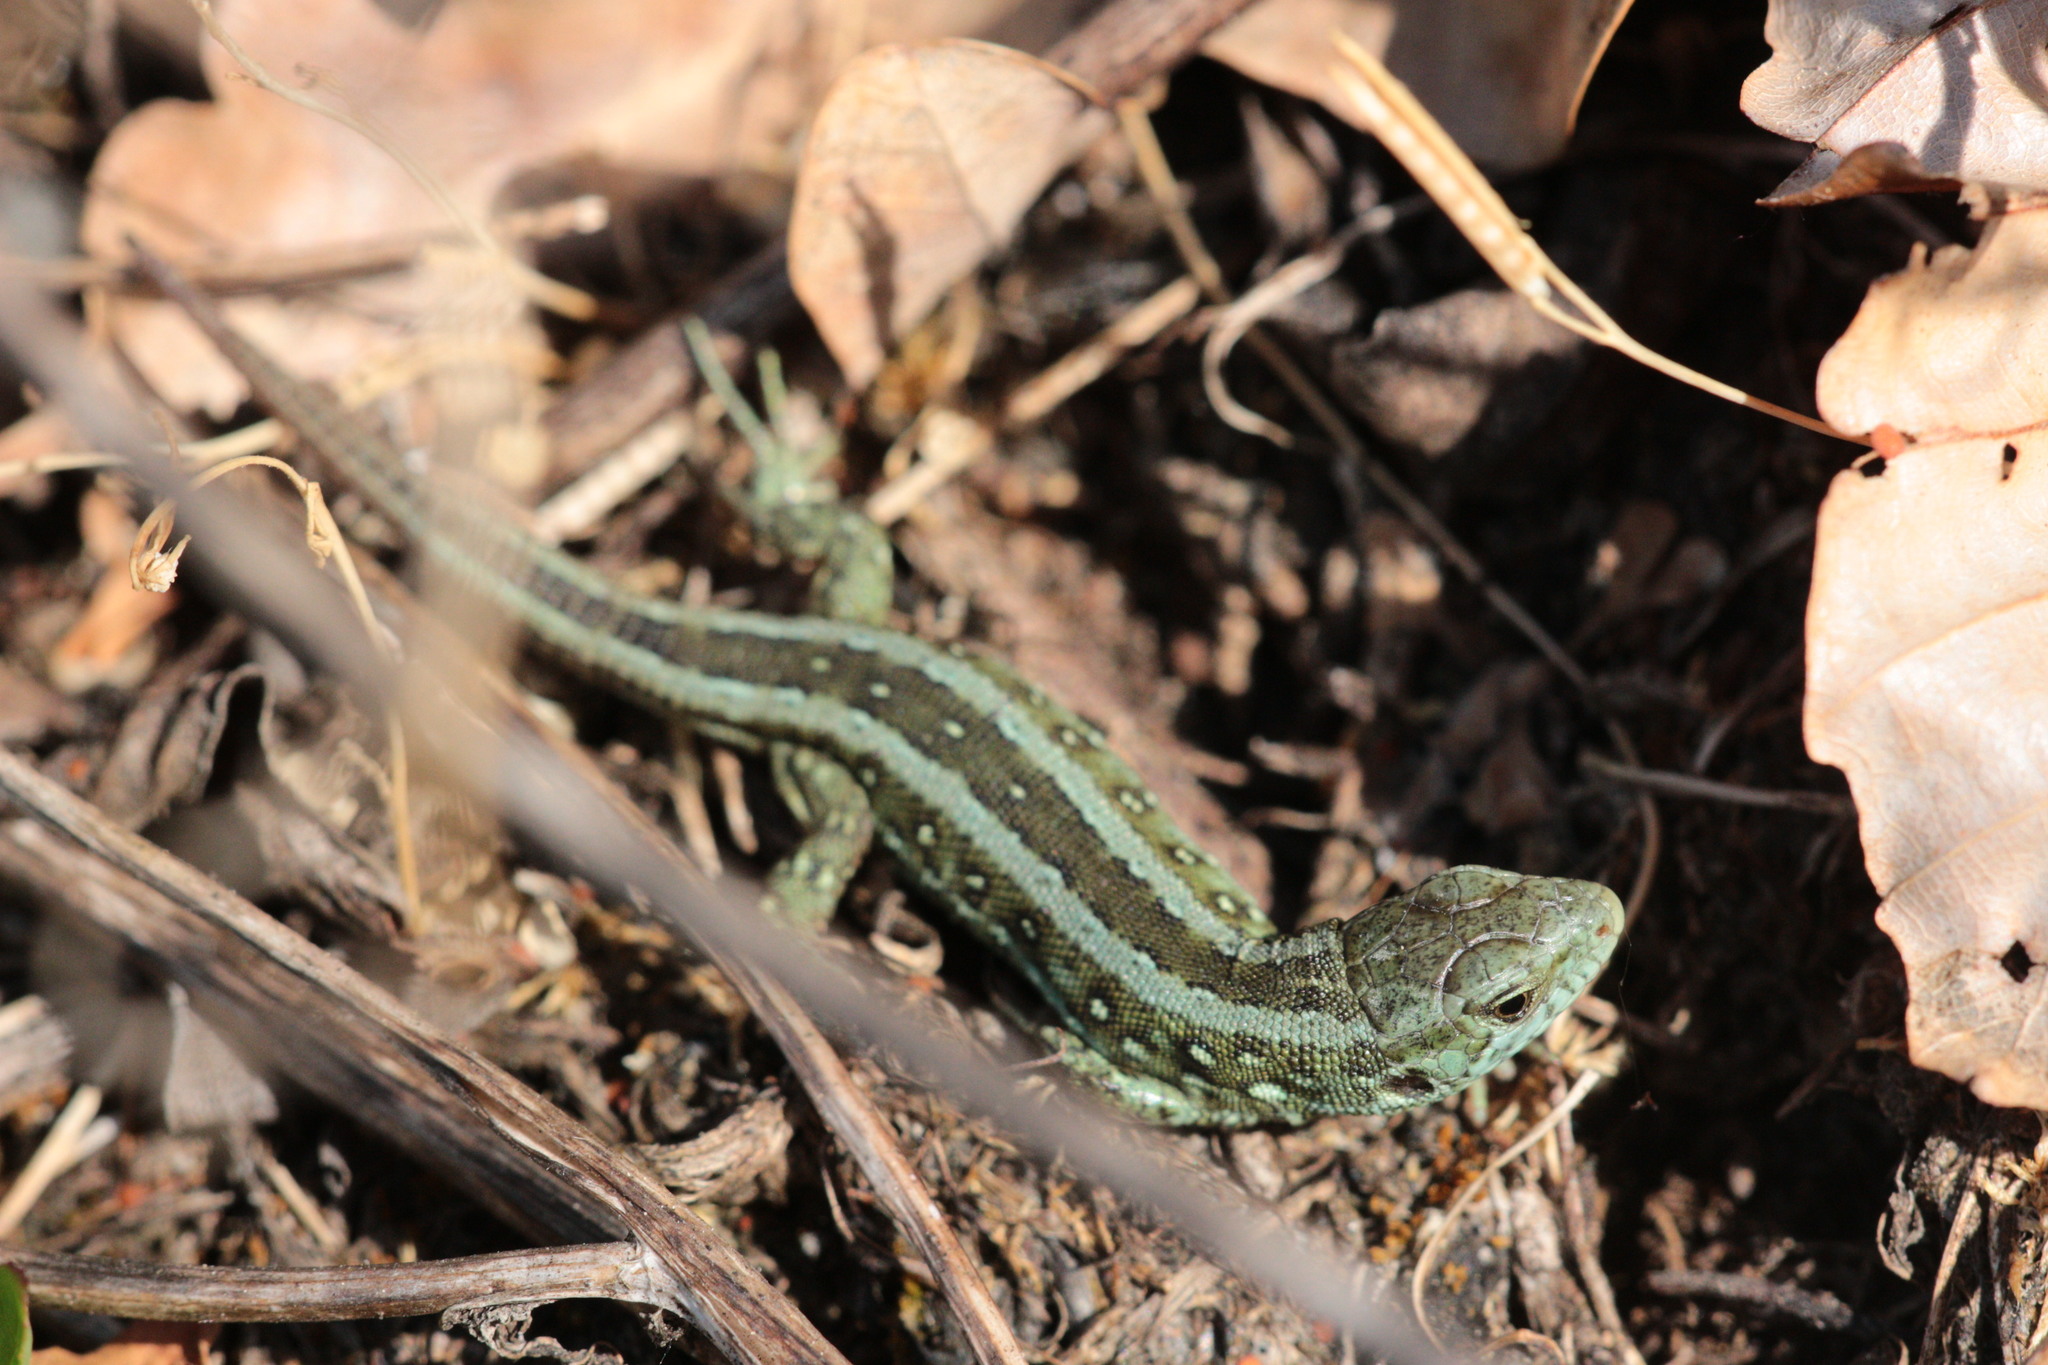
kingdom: Animalia
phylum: Chordata
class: Squamata
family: Lacertidae
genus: Lacerta
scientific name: Lacerta agilis
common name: Sand lizard
